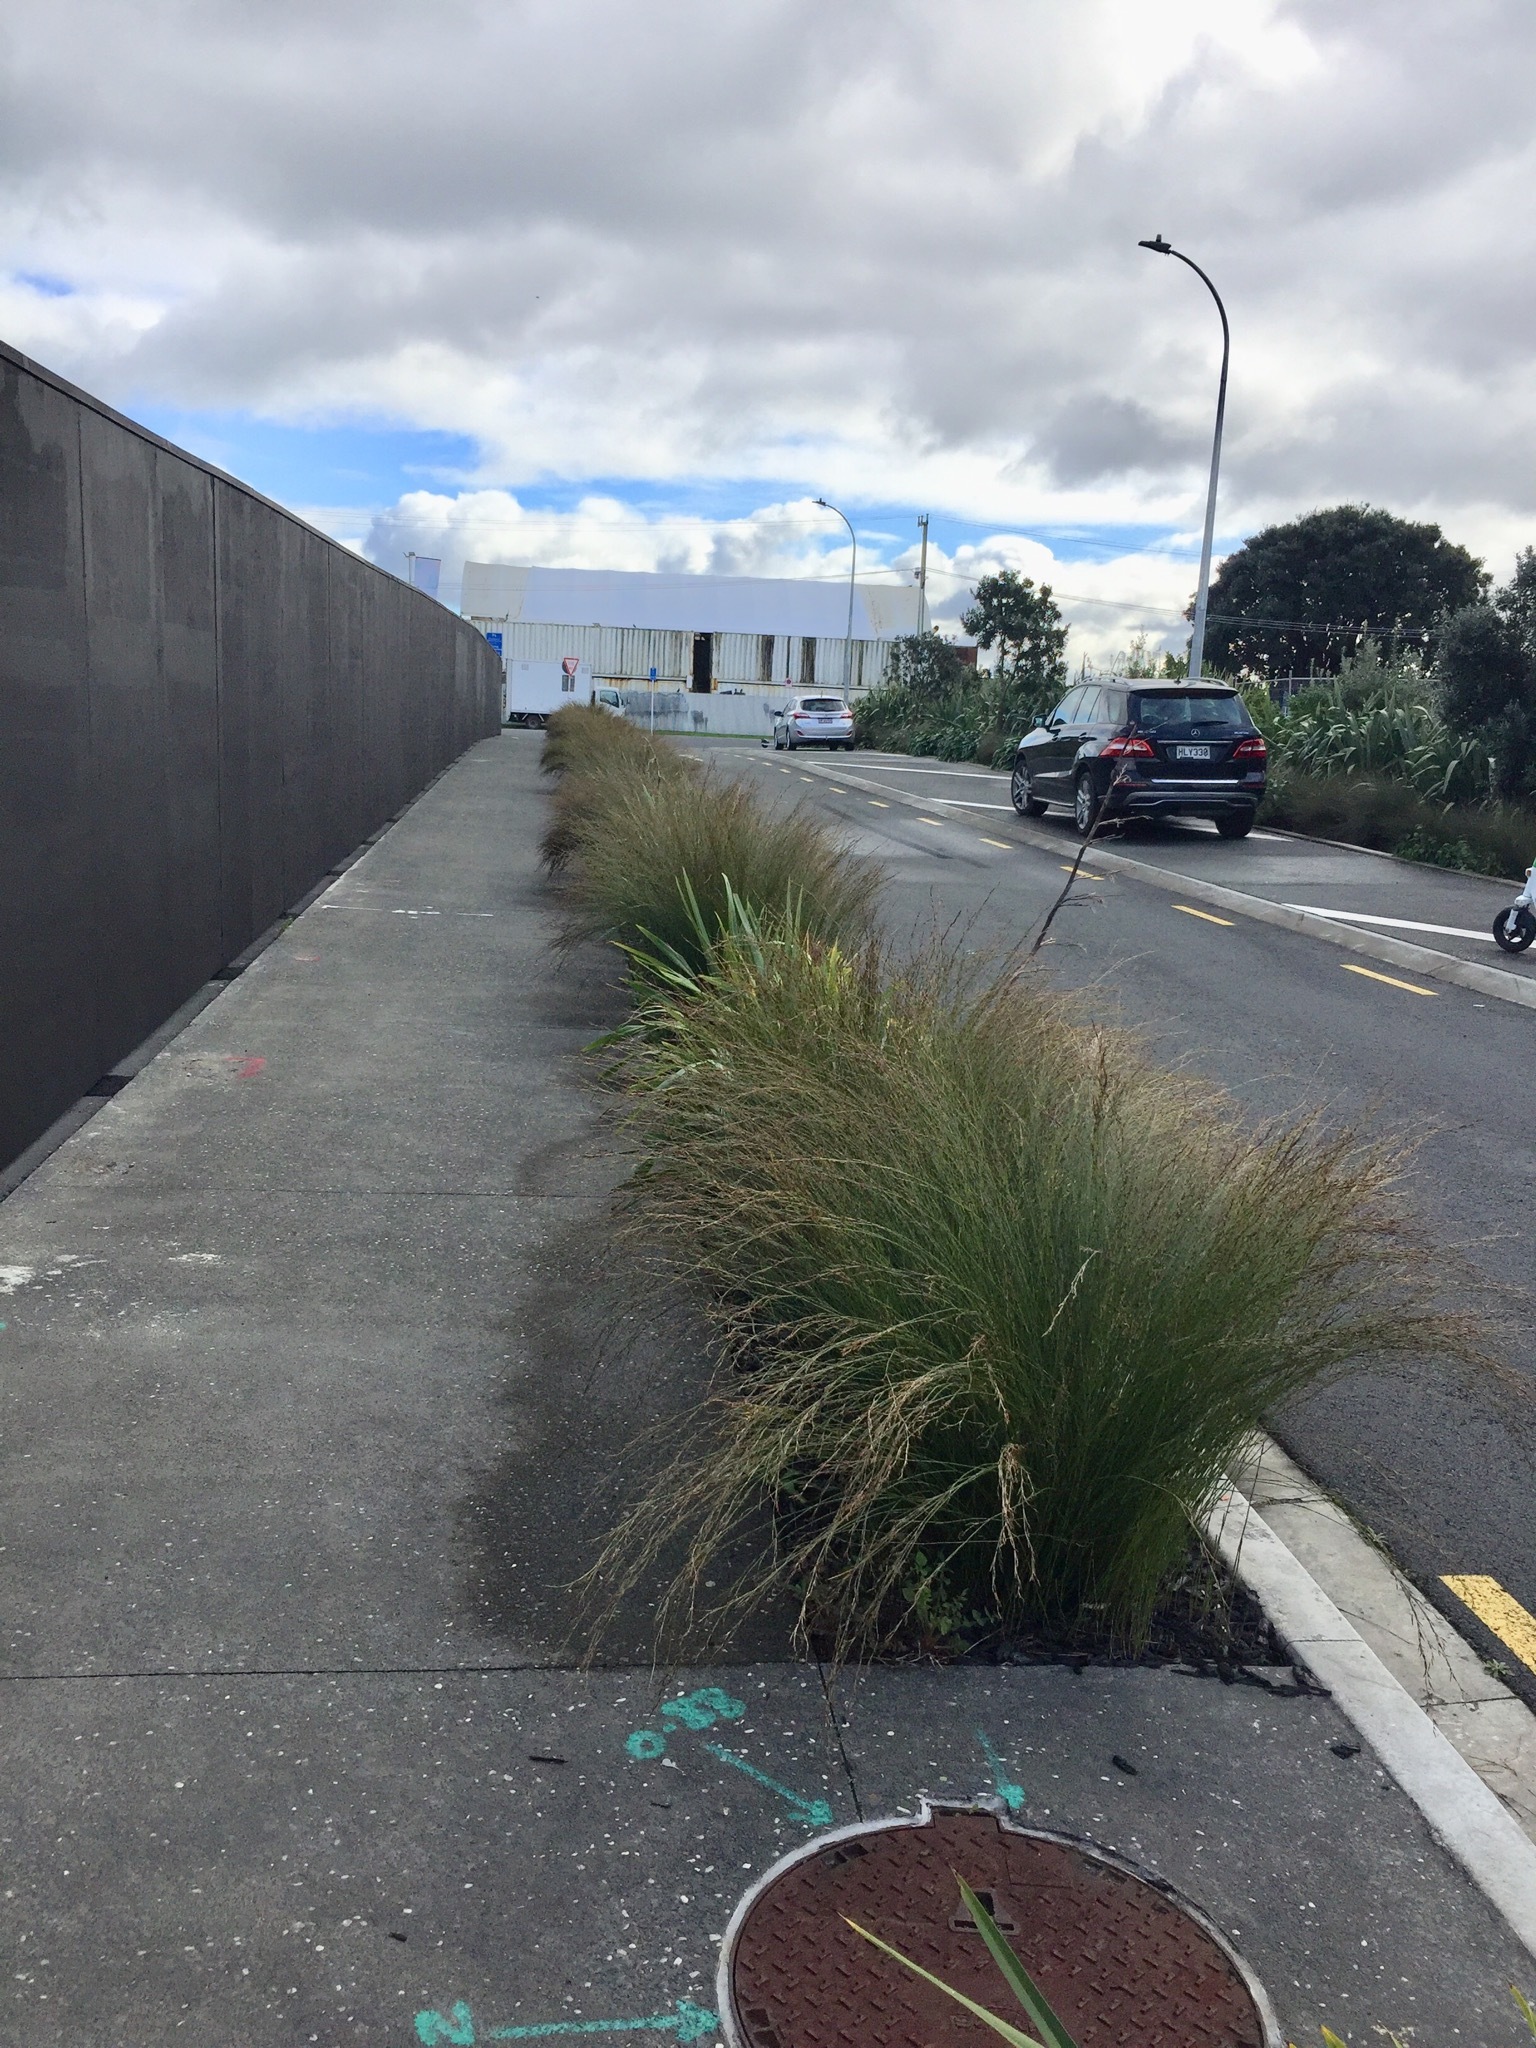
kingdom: Plantae
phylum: Tracheophyta
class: Magnoliopsida
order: Fabales
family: Fabaceae
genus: Ornithopus
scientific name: Ornithopus pinnatus
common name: Orange bird's-foot
